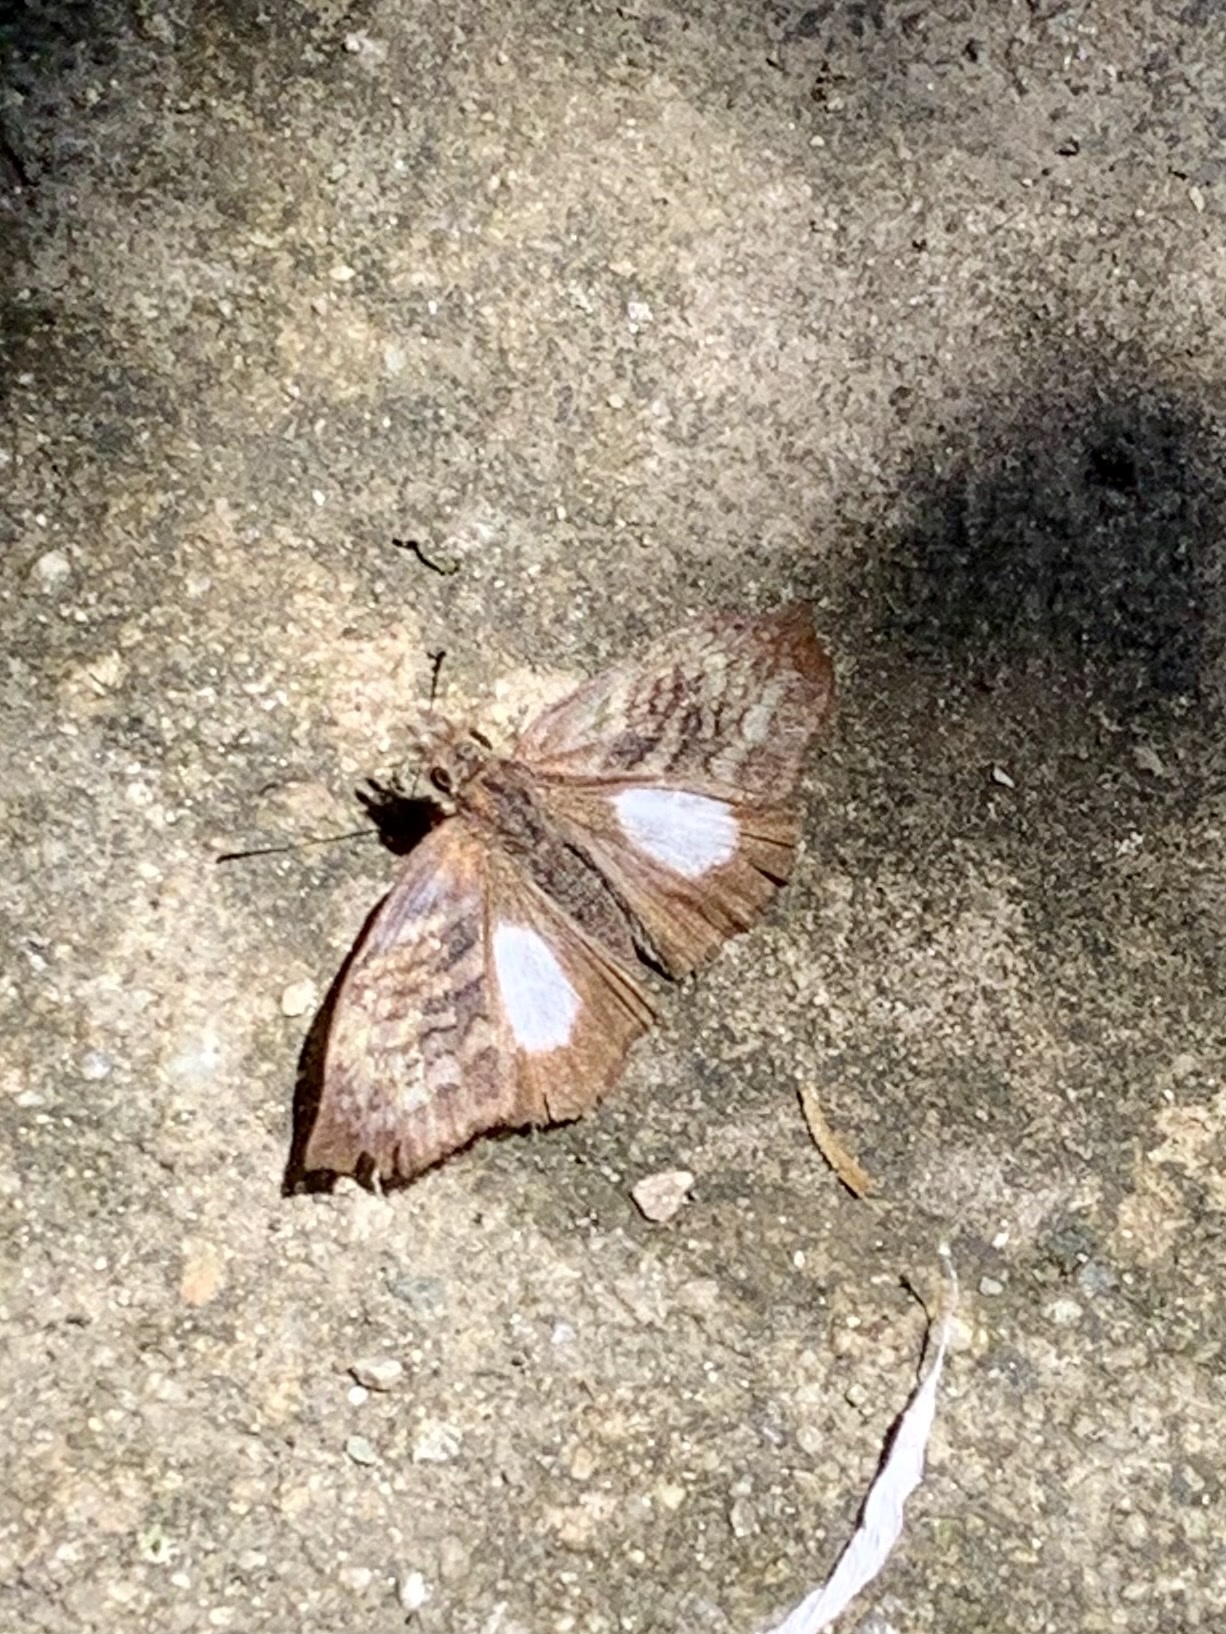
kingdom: Animalia
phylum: Arthropoda
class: Insecta
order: Lepidoptera
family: Hesperiidae
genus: Theagenes
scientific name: Theagenes albiplaga
